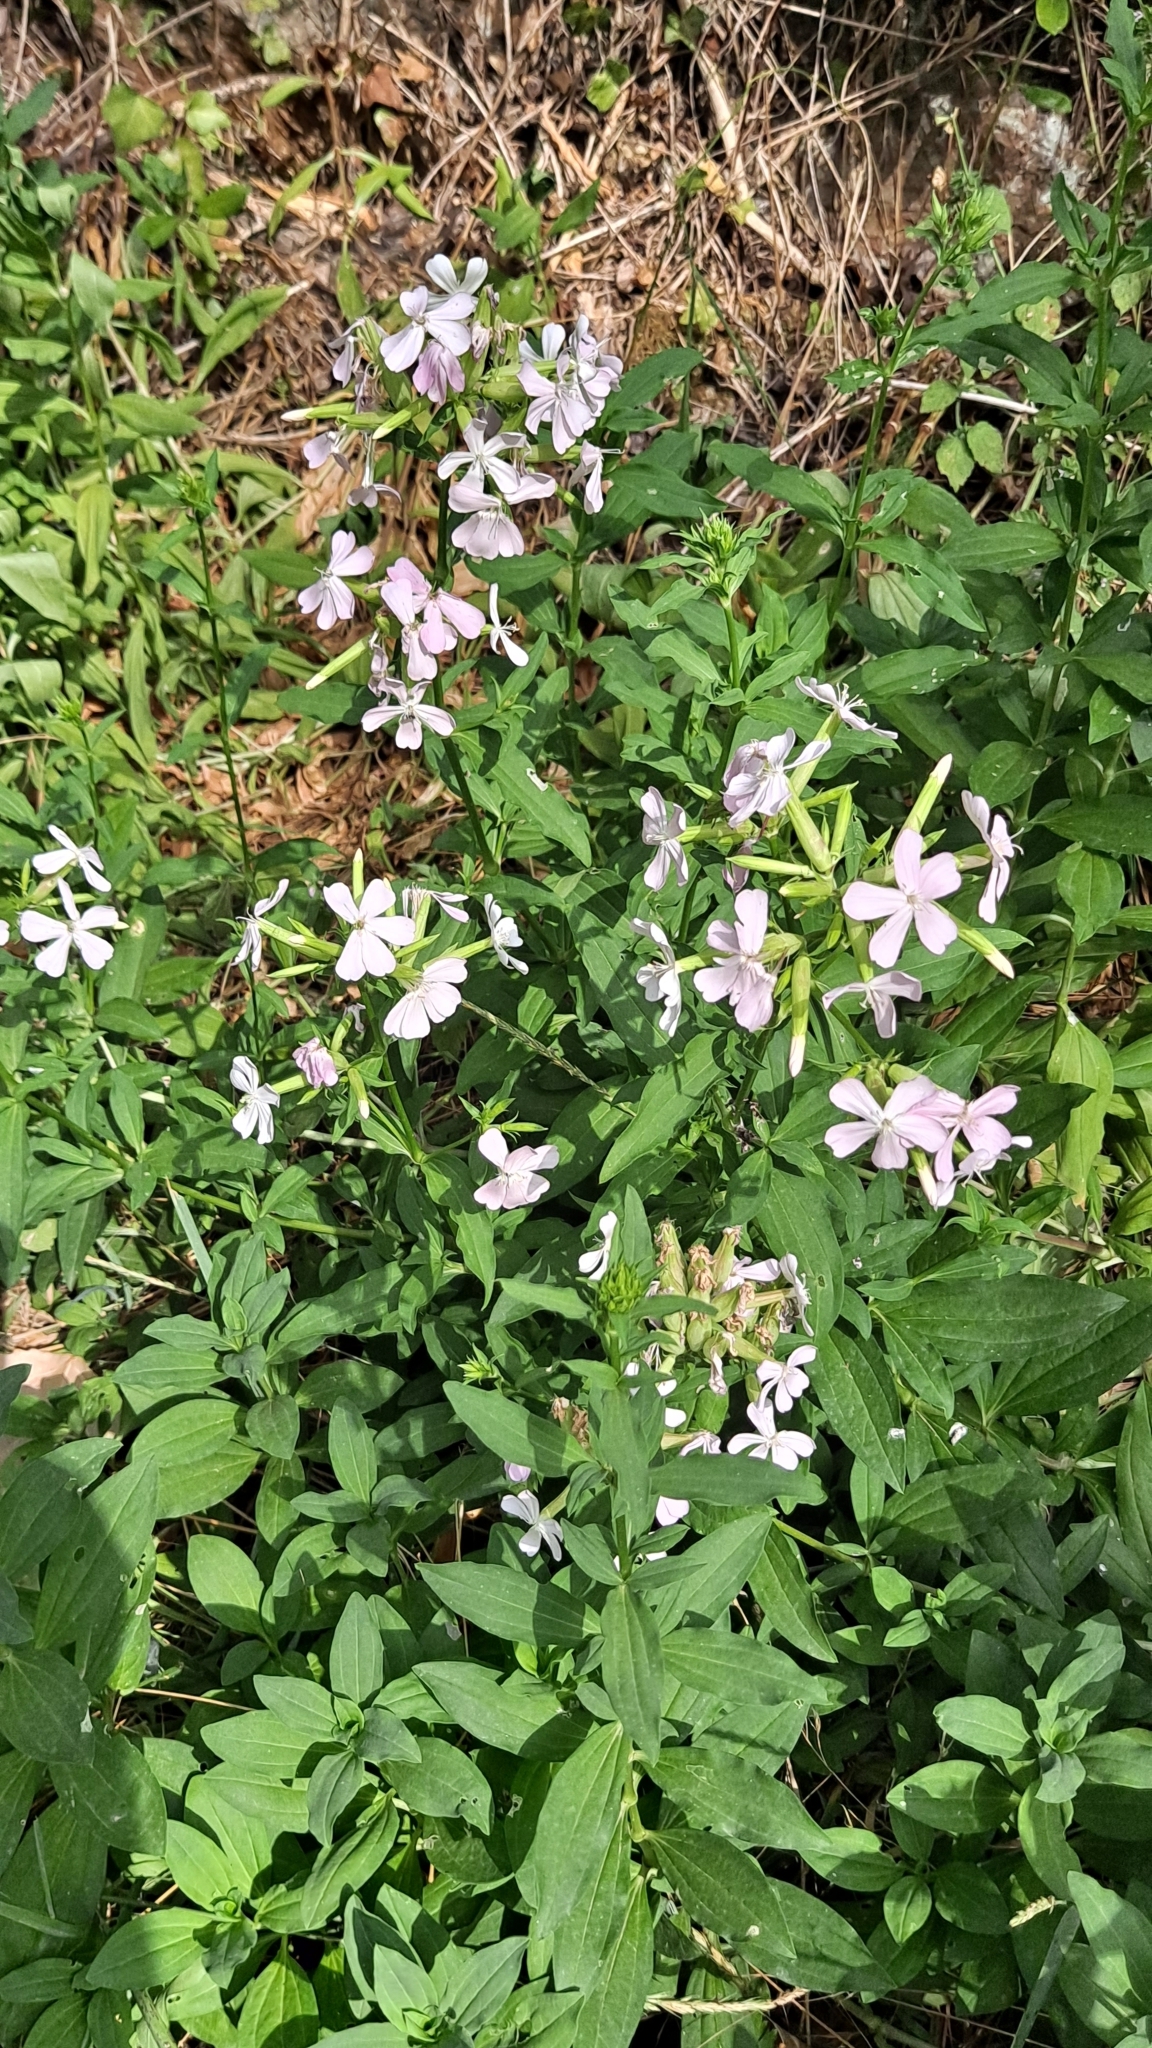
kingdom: Plantae
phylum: Tracheophyta
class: Magnoliopsida
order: Caryophyllales
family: Caryophyllaceae
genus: Saponaria
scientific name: Saponaria officinalis
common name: Soapwort
